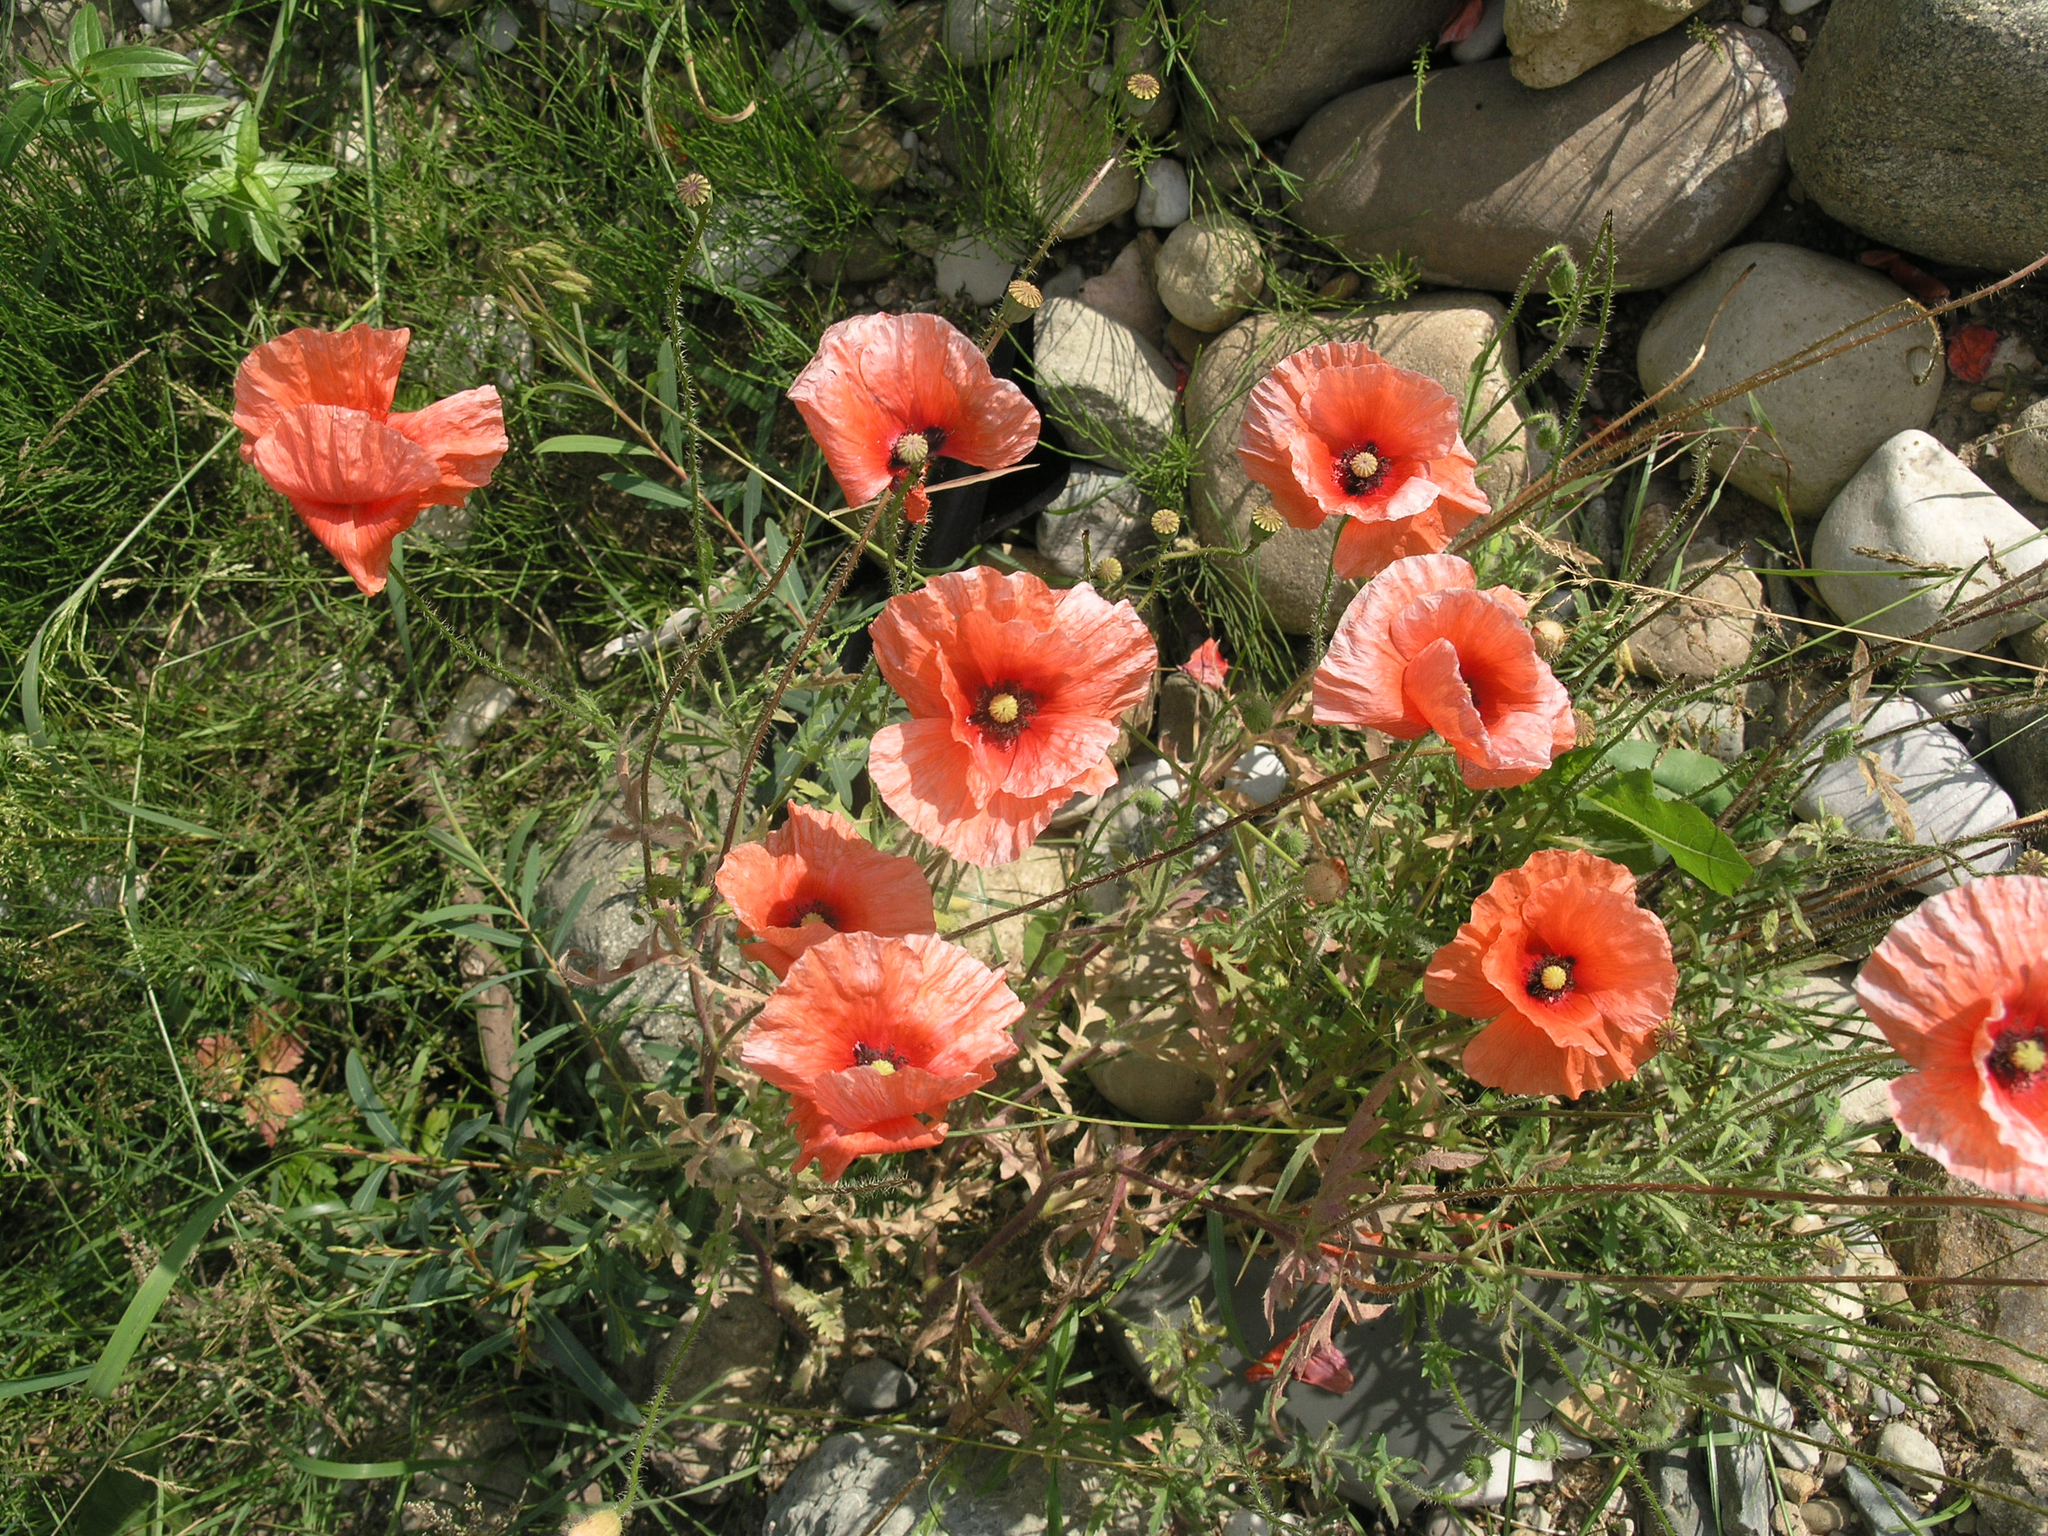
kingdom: Plantae
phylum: Tracheophyta
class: Magnoliopsida
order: Ranunculales
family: Papaveraceae
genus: Papaver
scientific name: Papaver rhoeas
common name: Corn poppy
